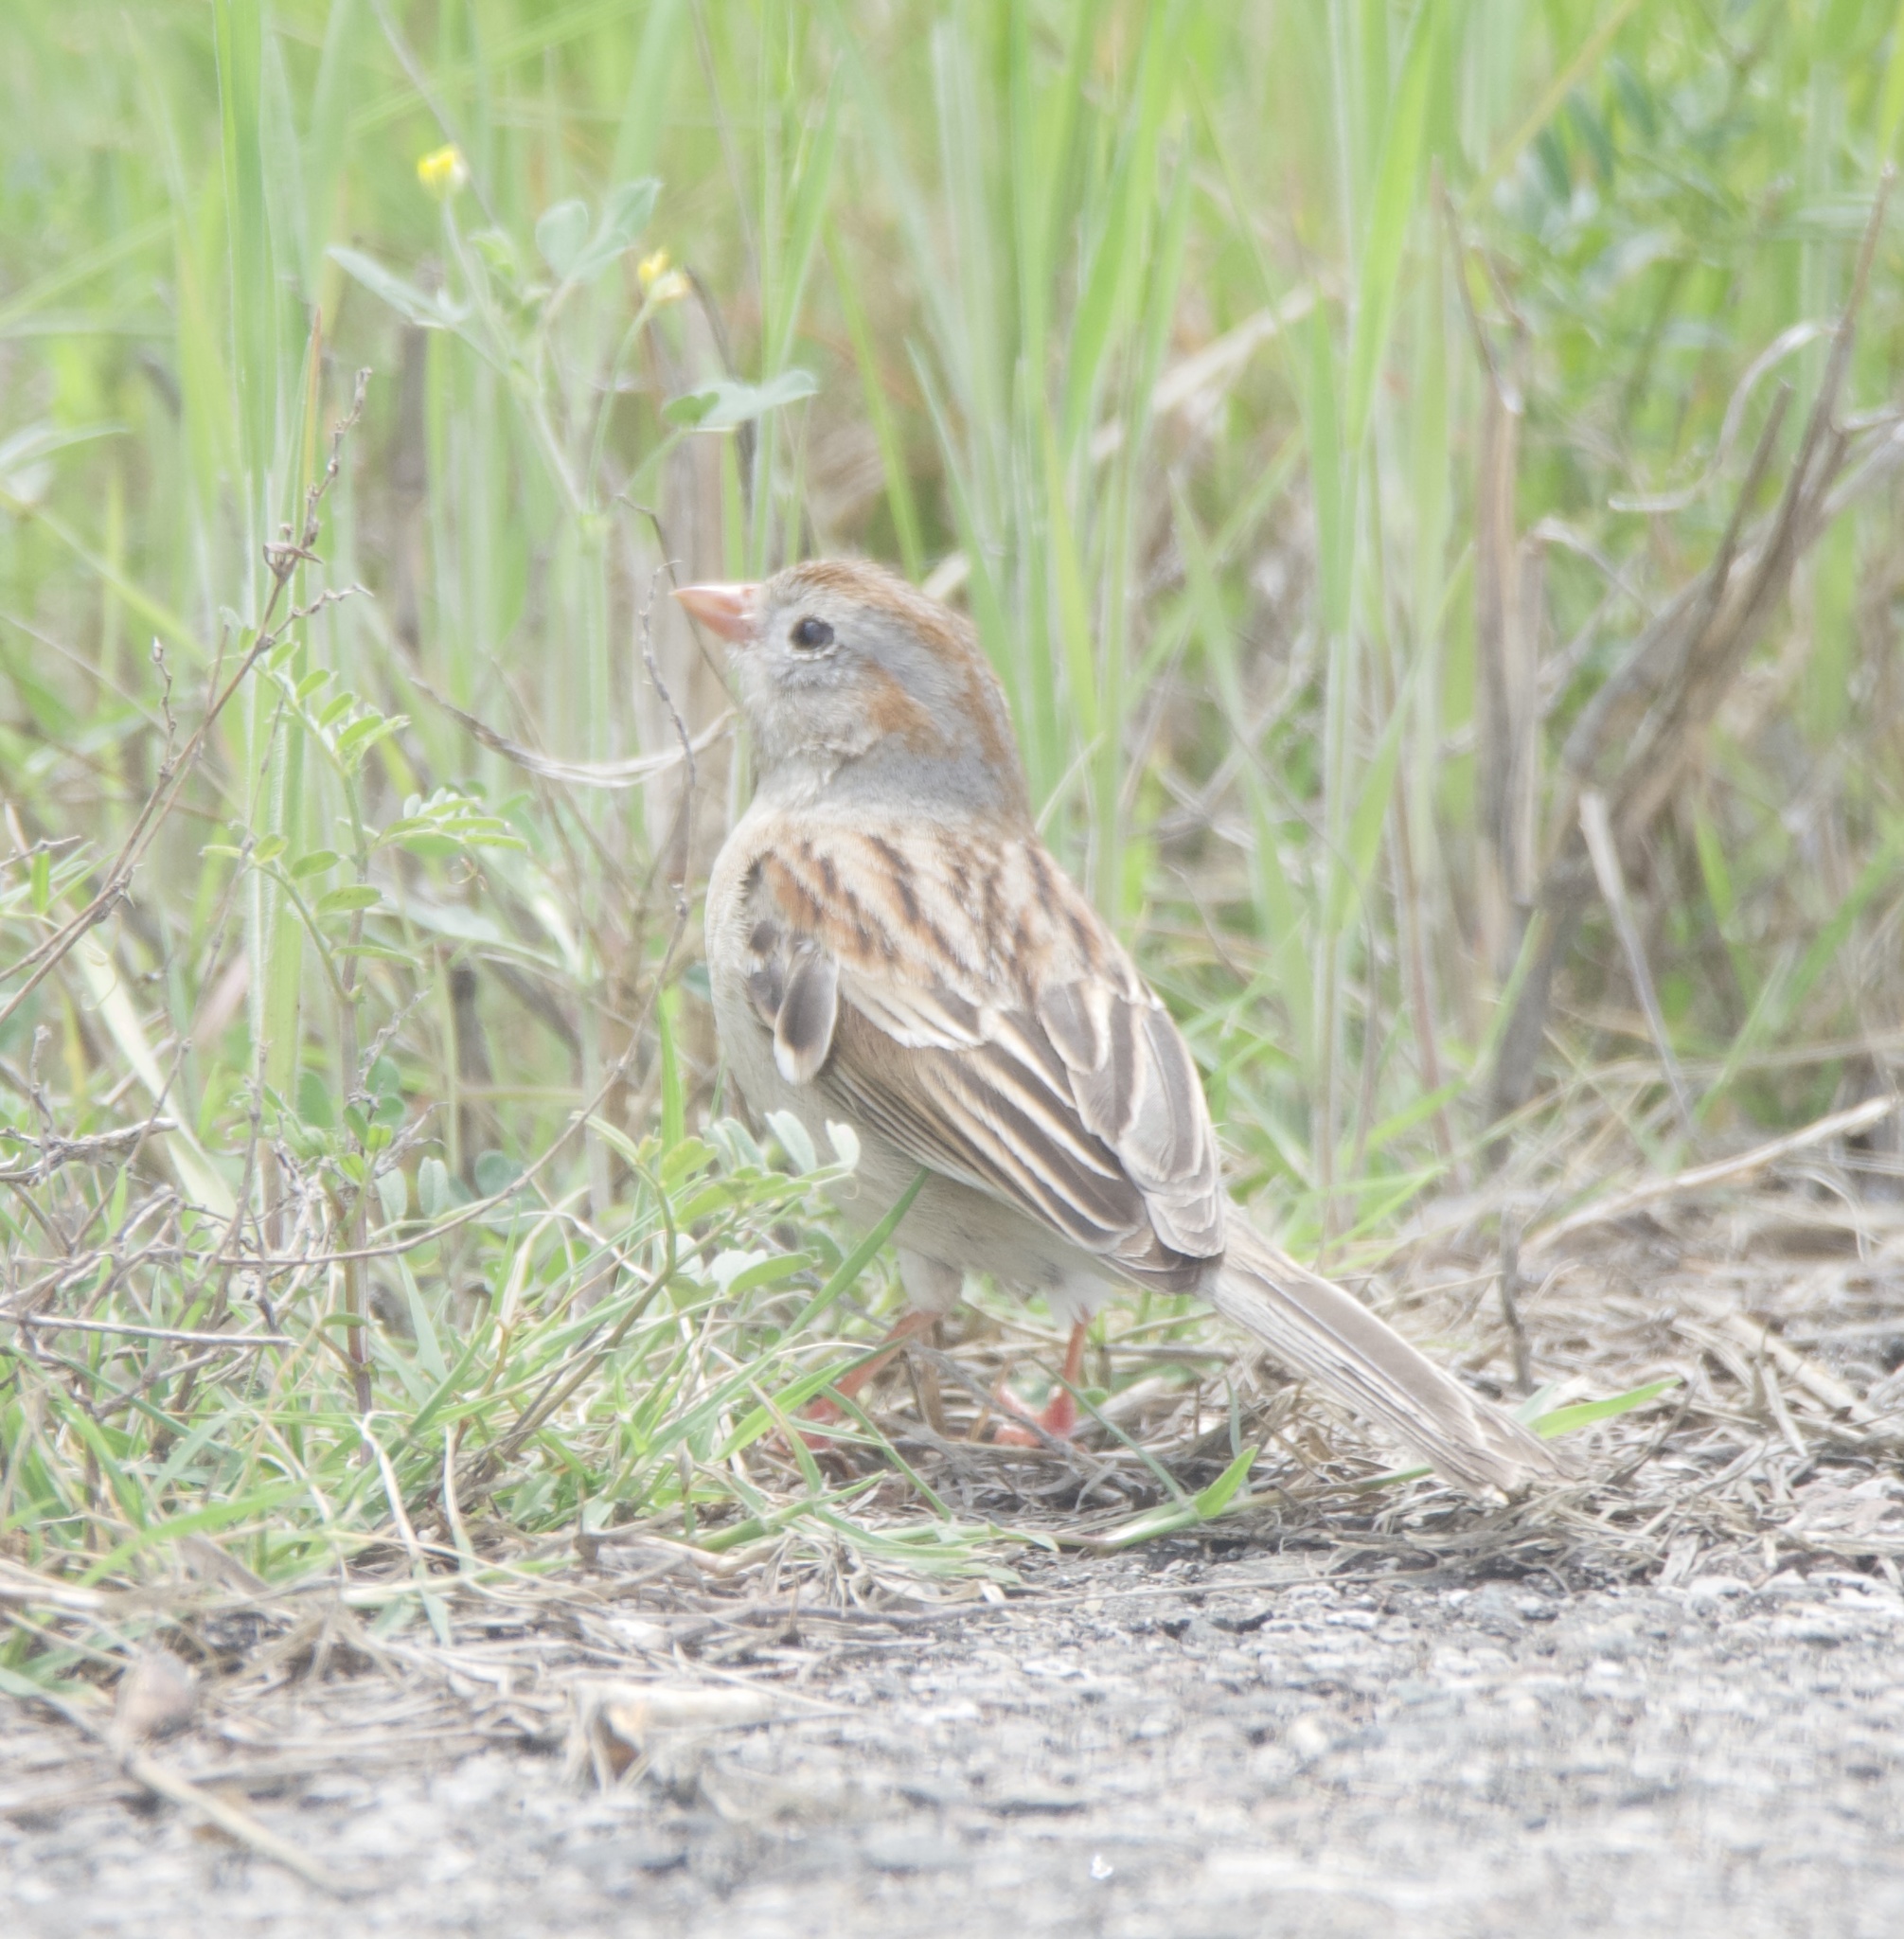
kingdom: Animalia
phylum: Chordata
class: Aves
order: Passeriformes
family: Passerellidae
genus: Spizella
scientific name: Spizella pusilla
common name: Field sparrow
